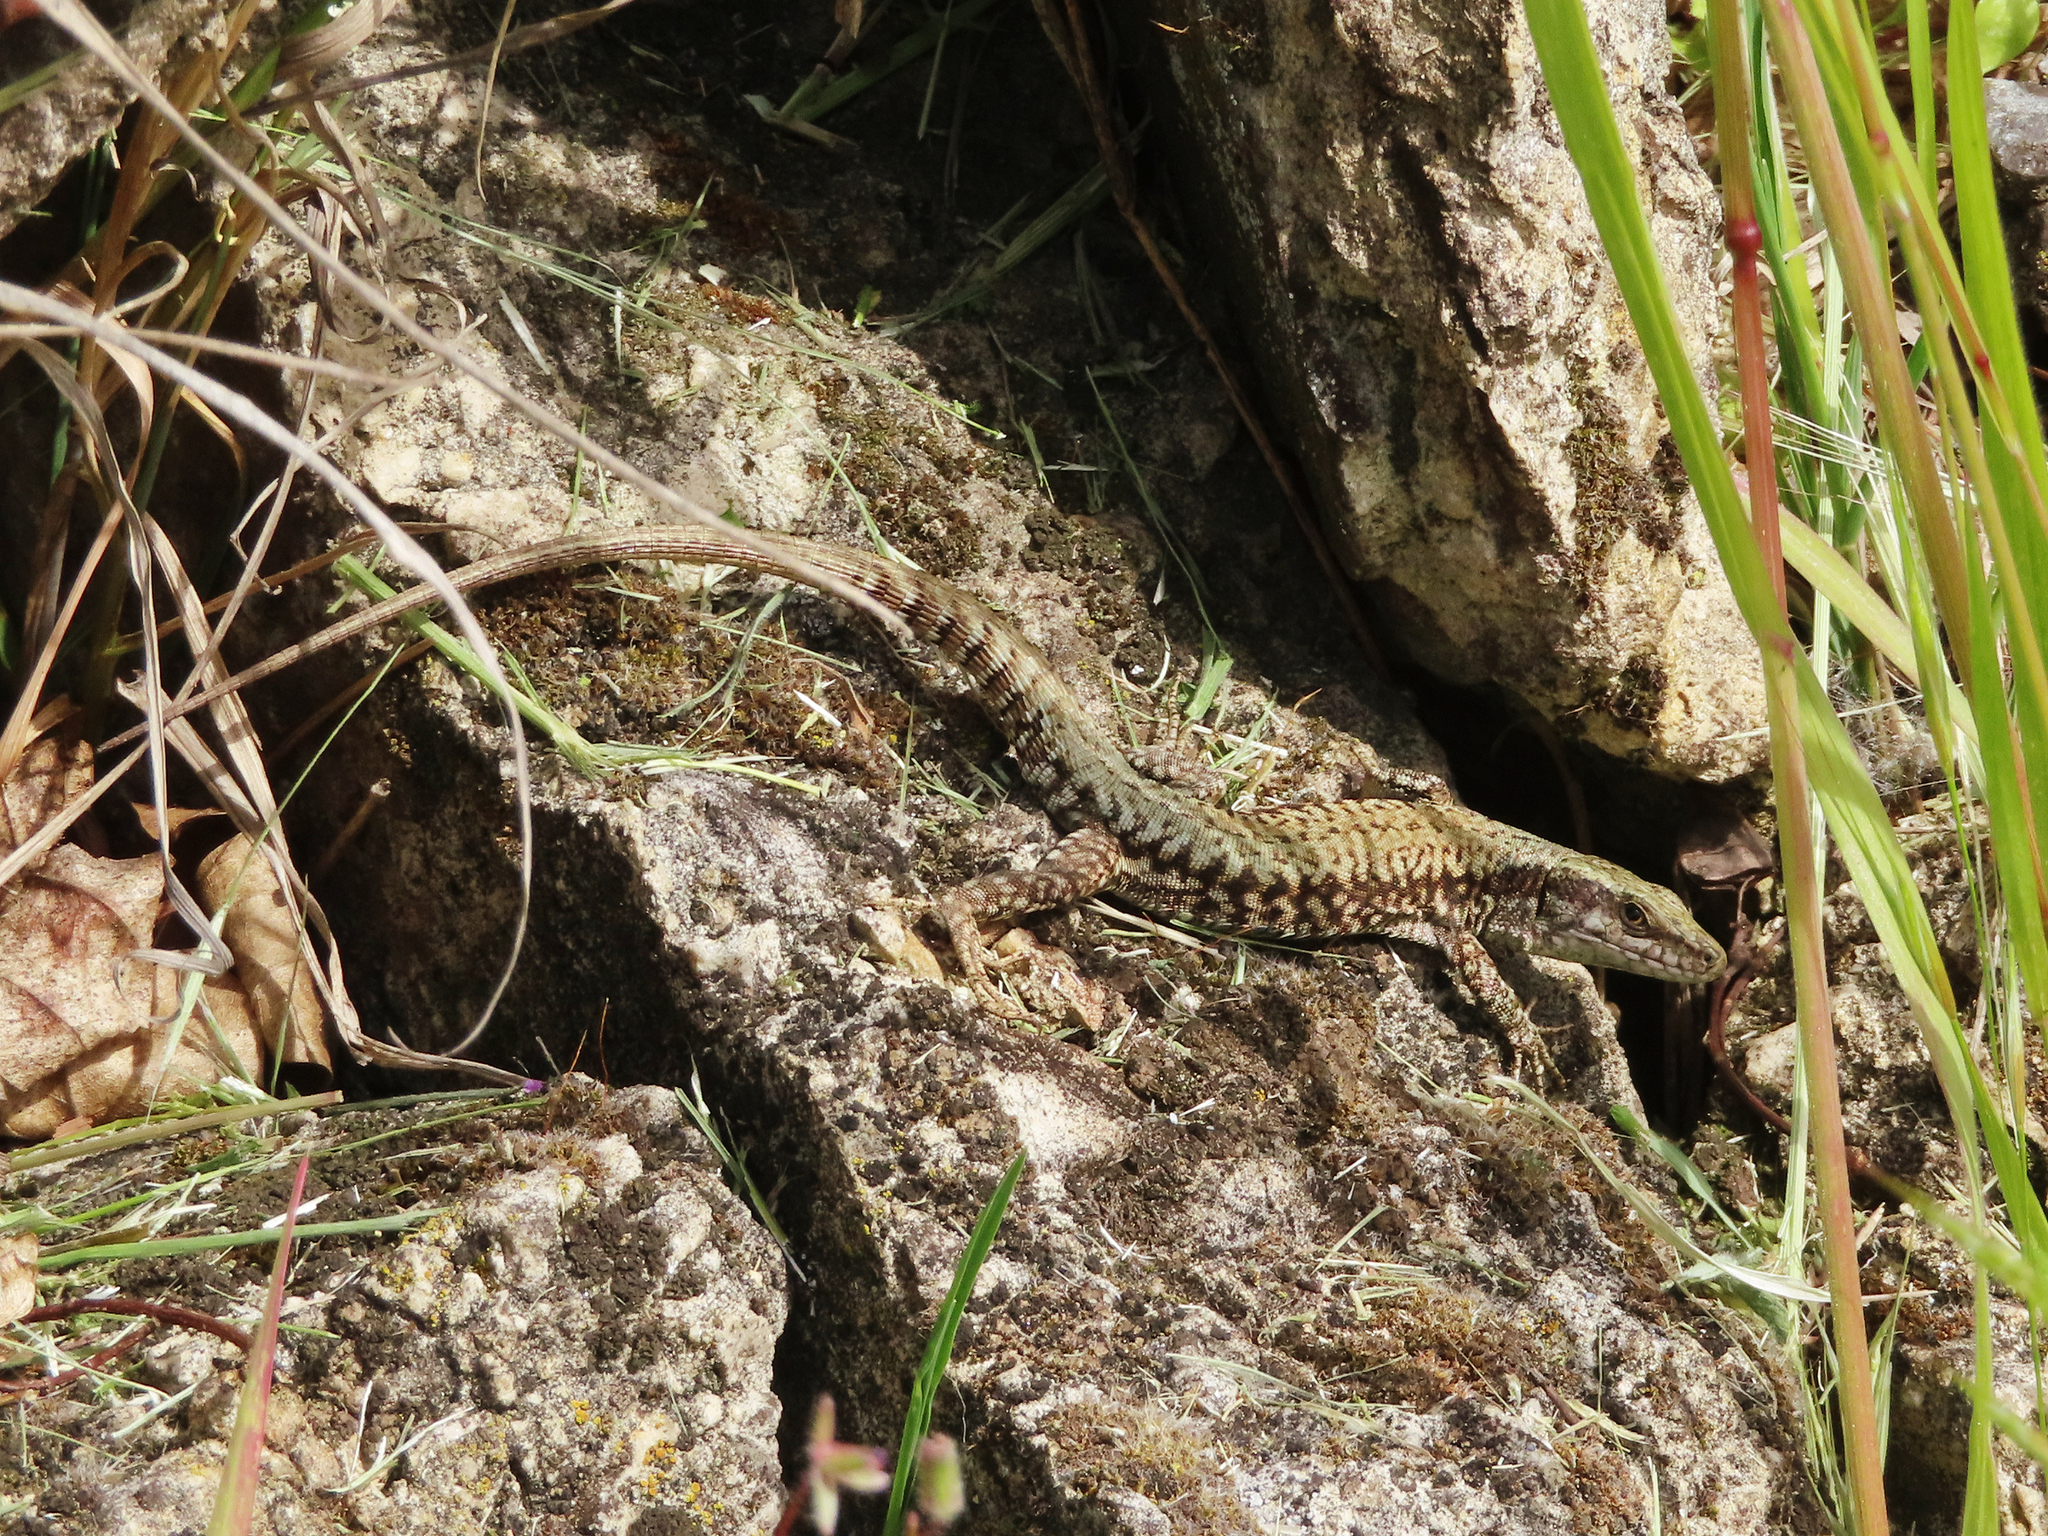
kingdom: Animalia
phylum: Chordata
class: Squamata
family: Lacertidae
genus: Podarcis
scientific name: Podarcis muralis
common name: Common wall lizard
